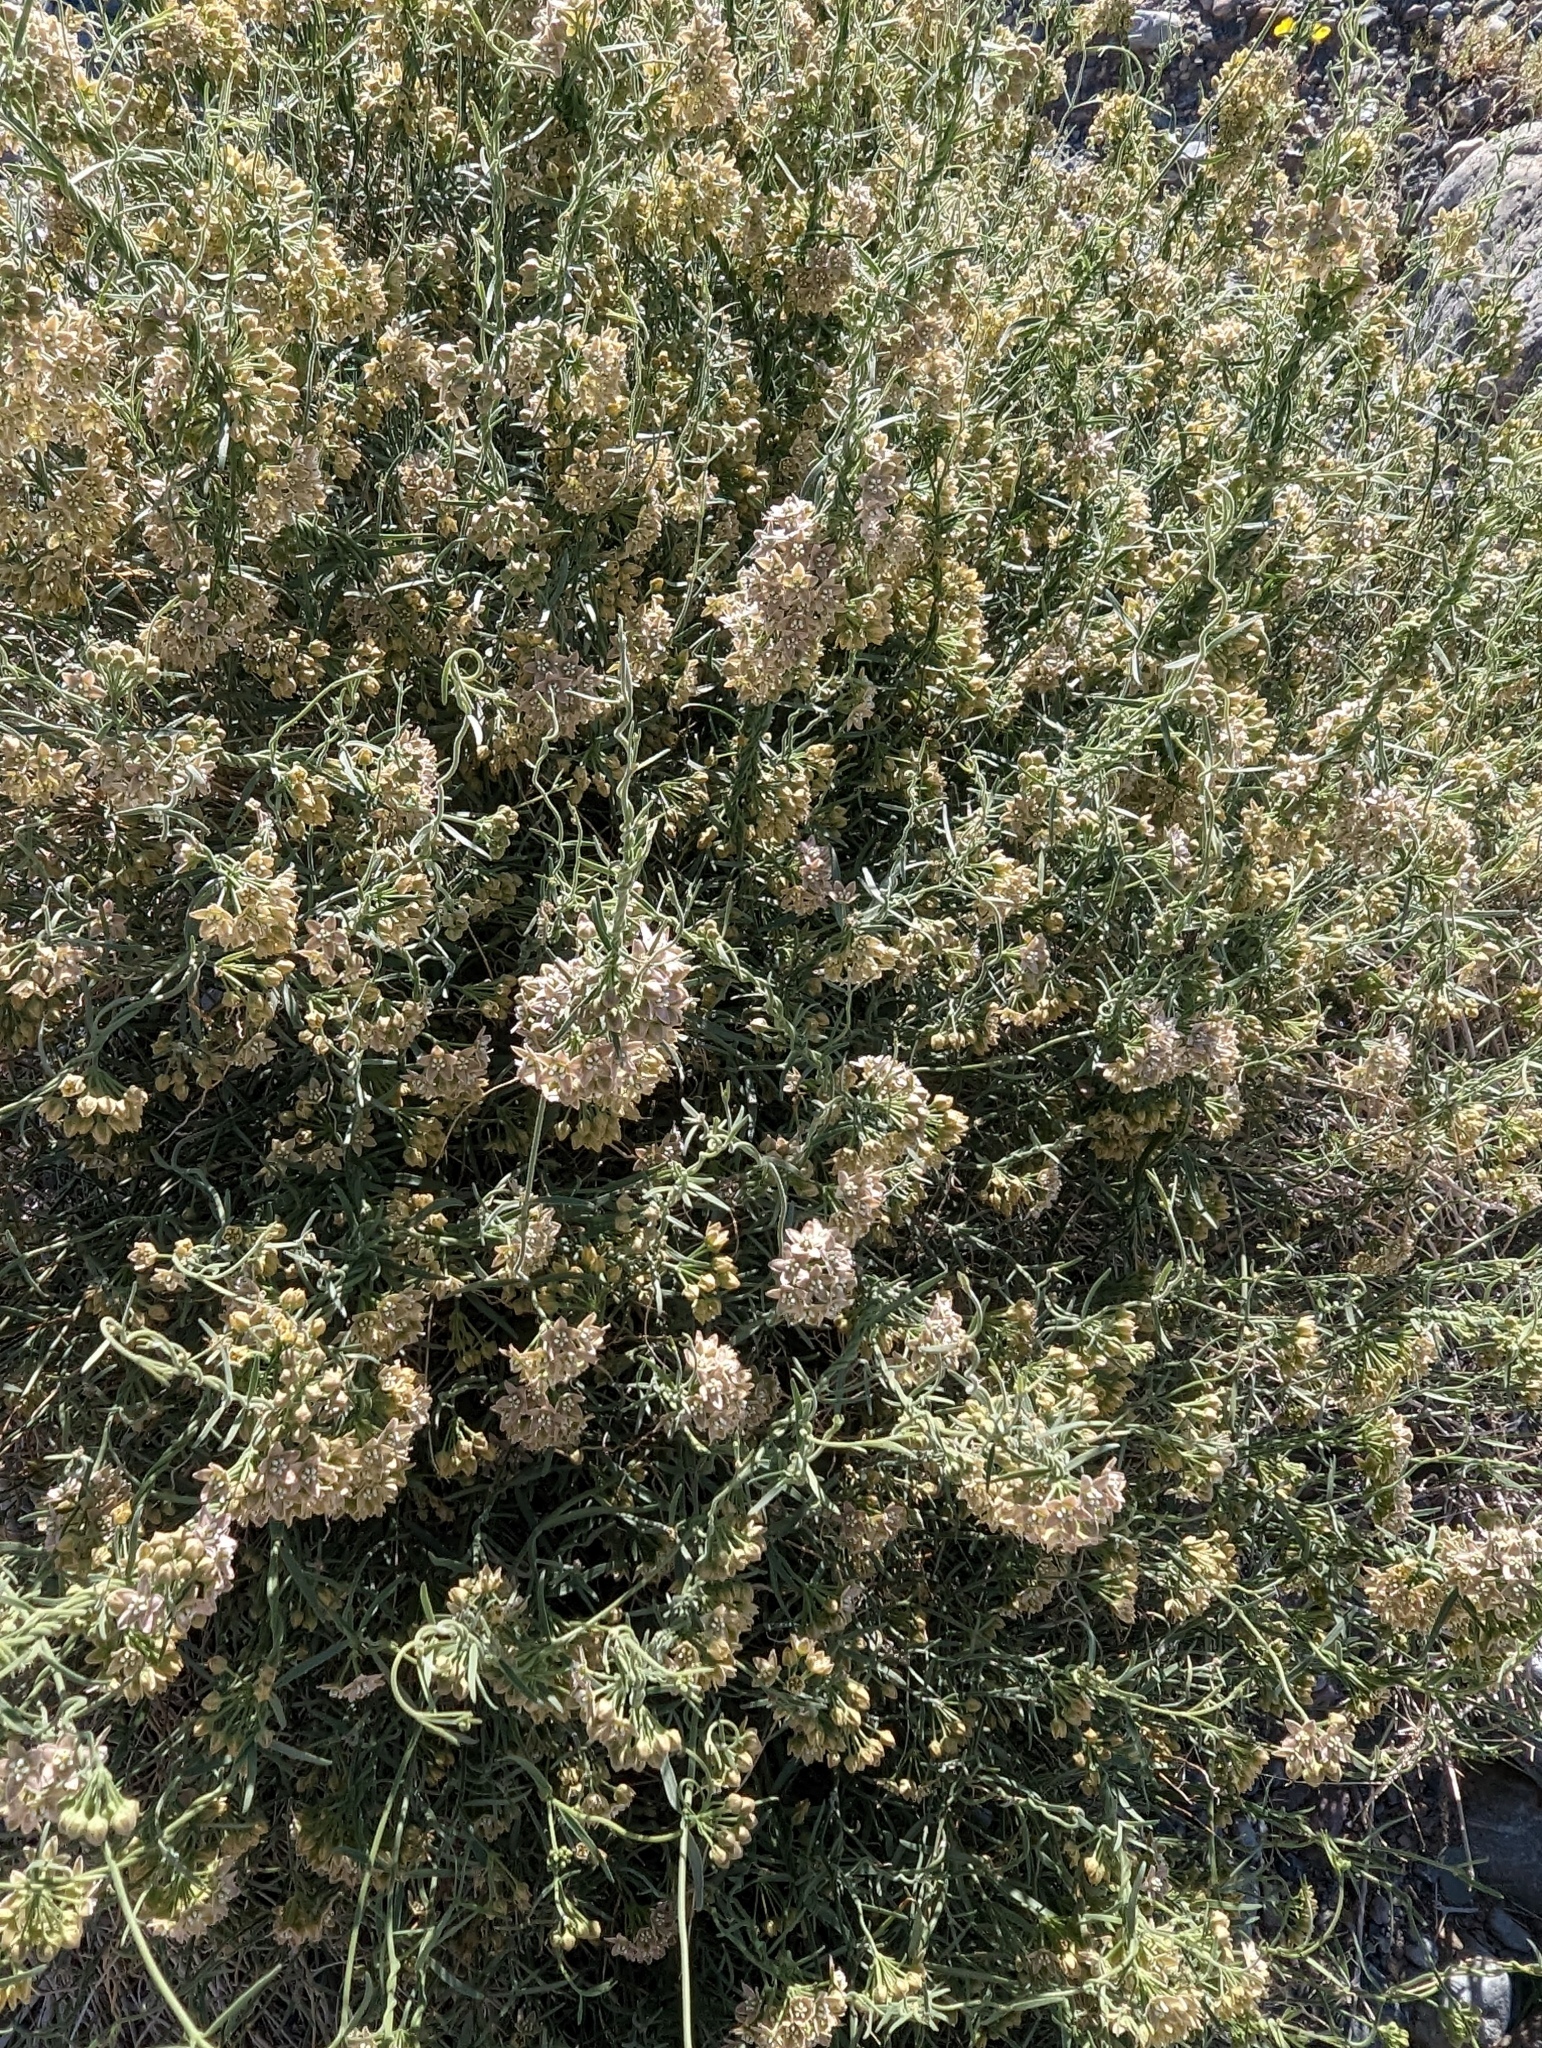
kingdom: Plantae
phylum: Tracheophyta
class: Magnoliopsida
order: Gentianales
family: Apocynaceae
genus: Funastrum
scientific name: Funastrum hirtellum
